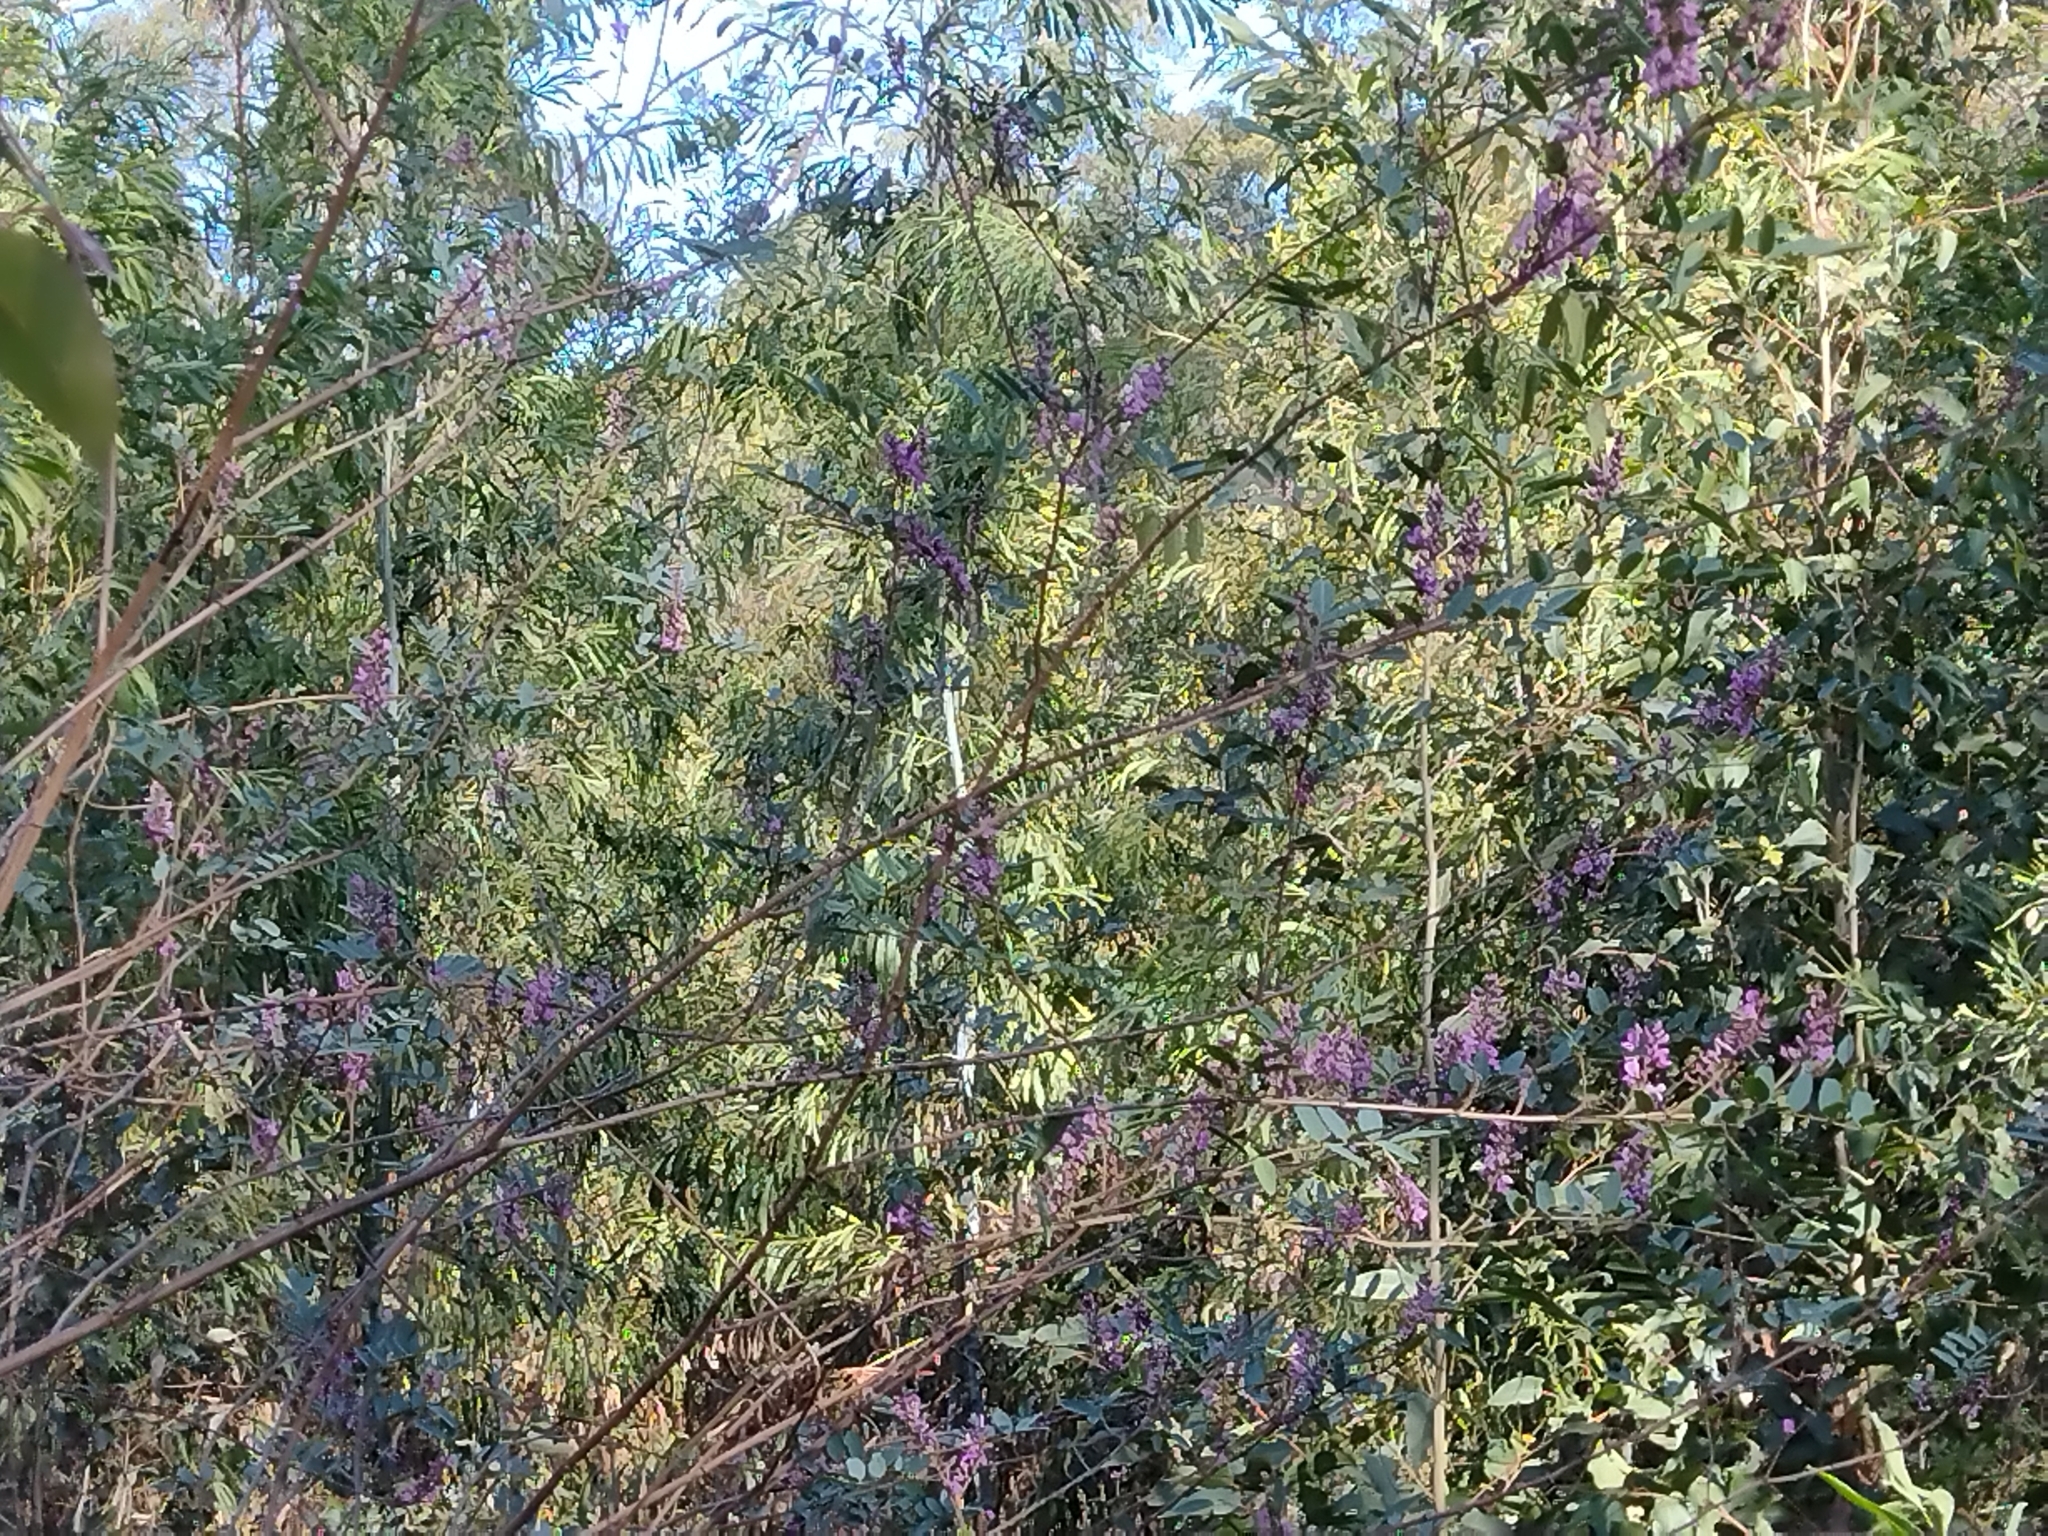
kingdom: Plantae
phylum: Tracheophyta
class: Magnoliopsida
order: Fabales
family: Fabaceae
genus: Indigofera
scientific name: Indigofera australis
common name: Australian indigo
